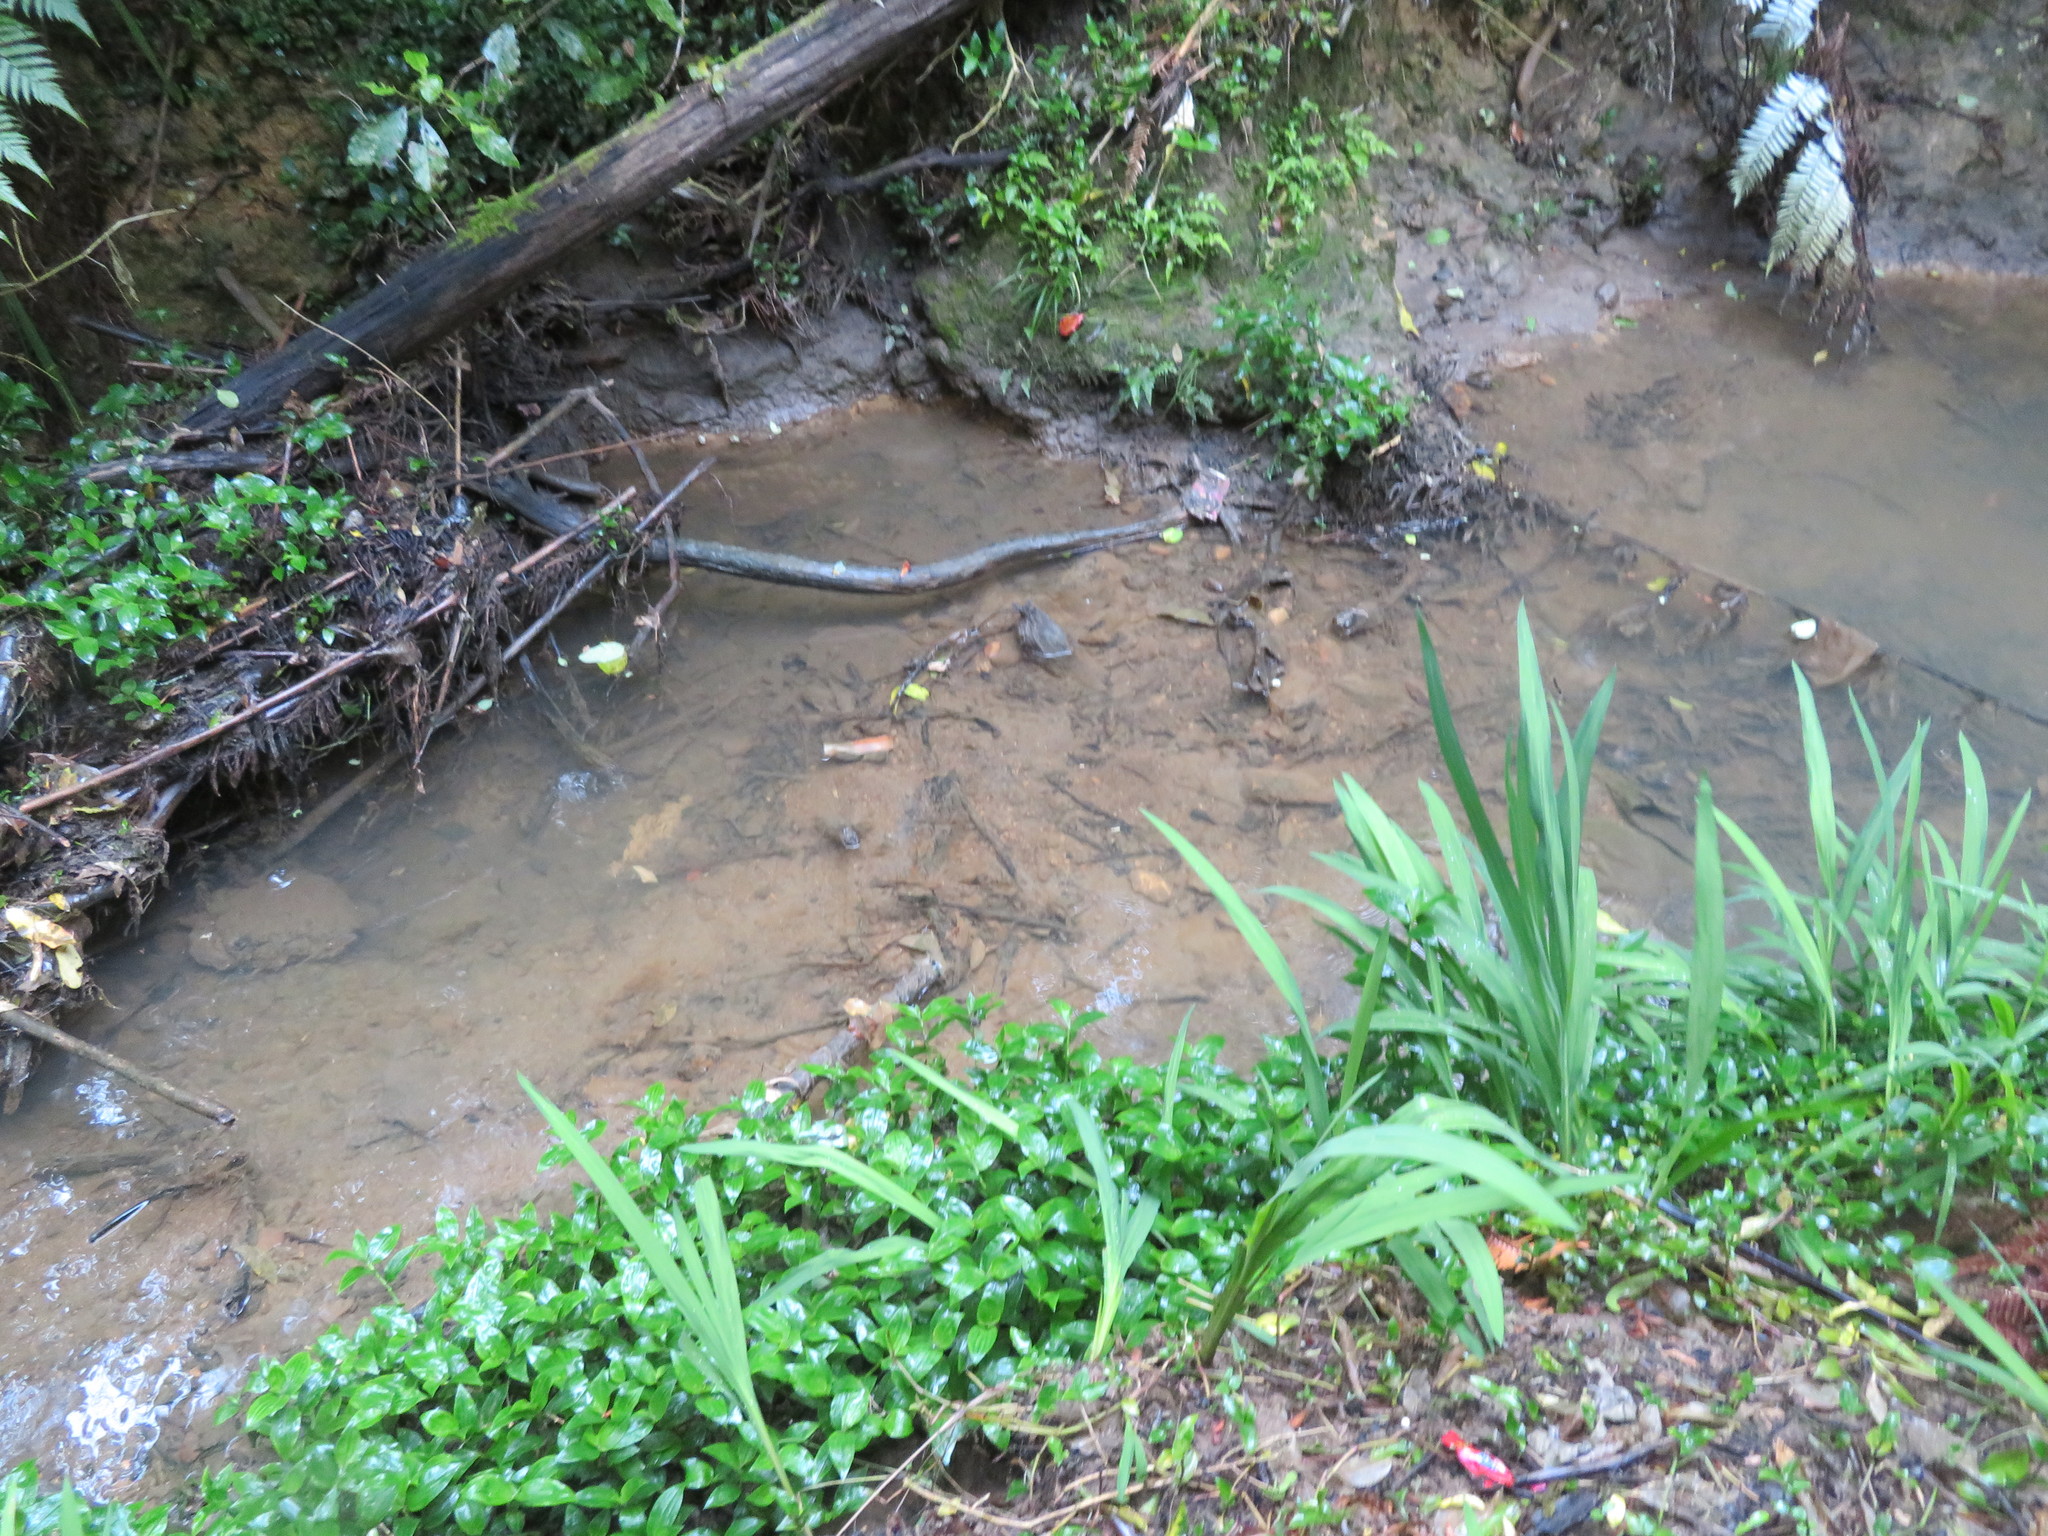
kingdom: Plantae
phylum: Tracheophyta
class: Liliopsida
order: Commelinales
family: Commelinaceae
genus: Tradescantia
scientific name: Tradescantia fluminensis
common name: Wandering-jew
